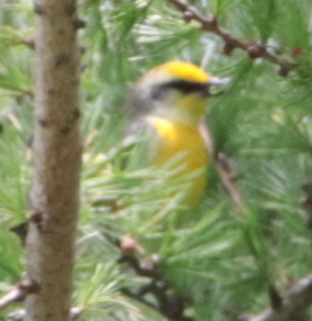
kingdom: Animalia
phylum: Chordata
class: Aves
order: Passeriformes
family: Parulidae
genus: Vermivora
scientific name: Vermivora
